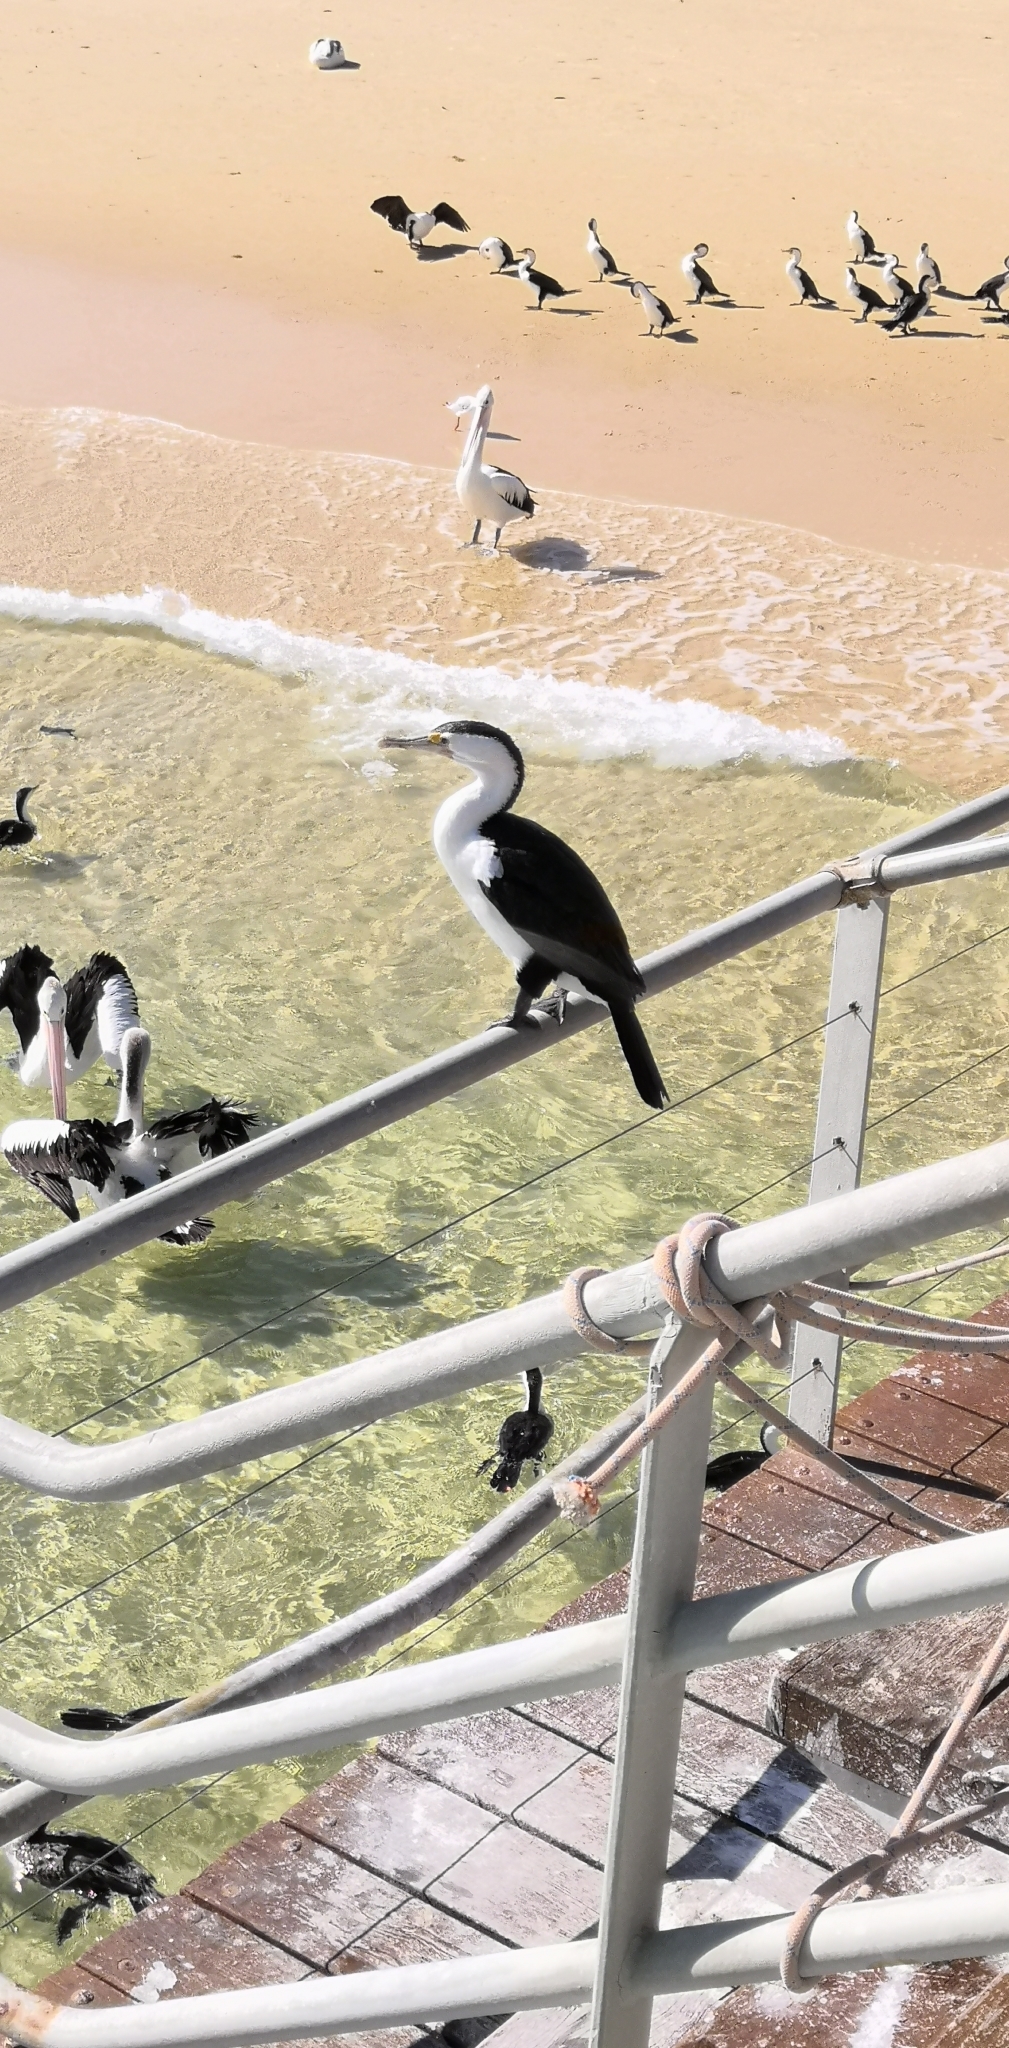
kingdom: Animalia
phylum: Chordata
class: Aves
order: Suliformes
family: Phalacrocoracidae
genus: Phalacrocorax
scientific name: Phalacrocorax varius
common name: Pied cormorant
